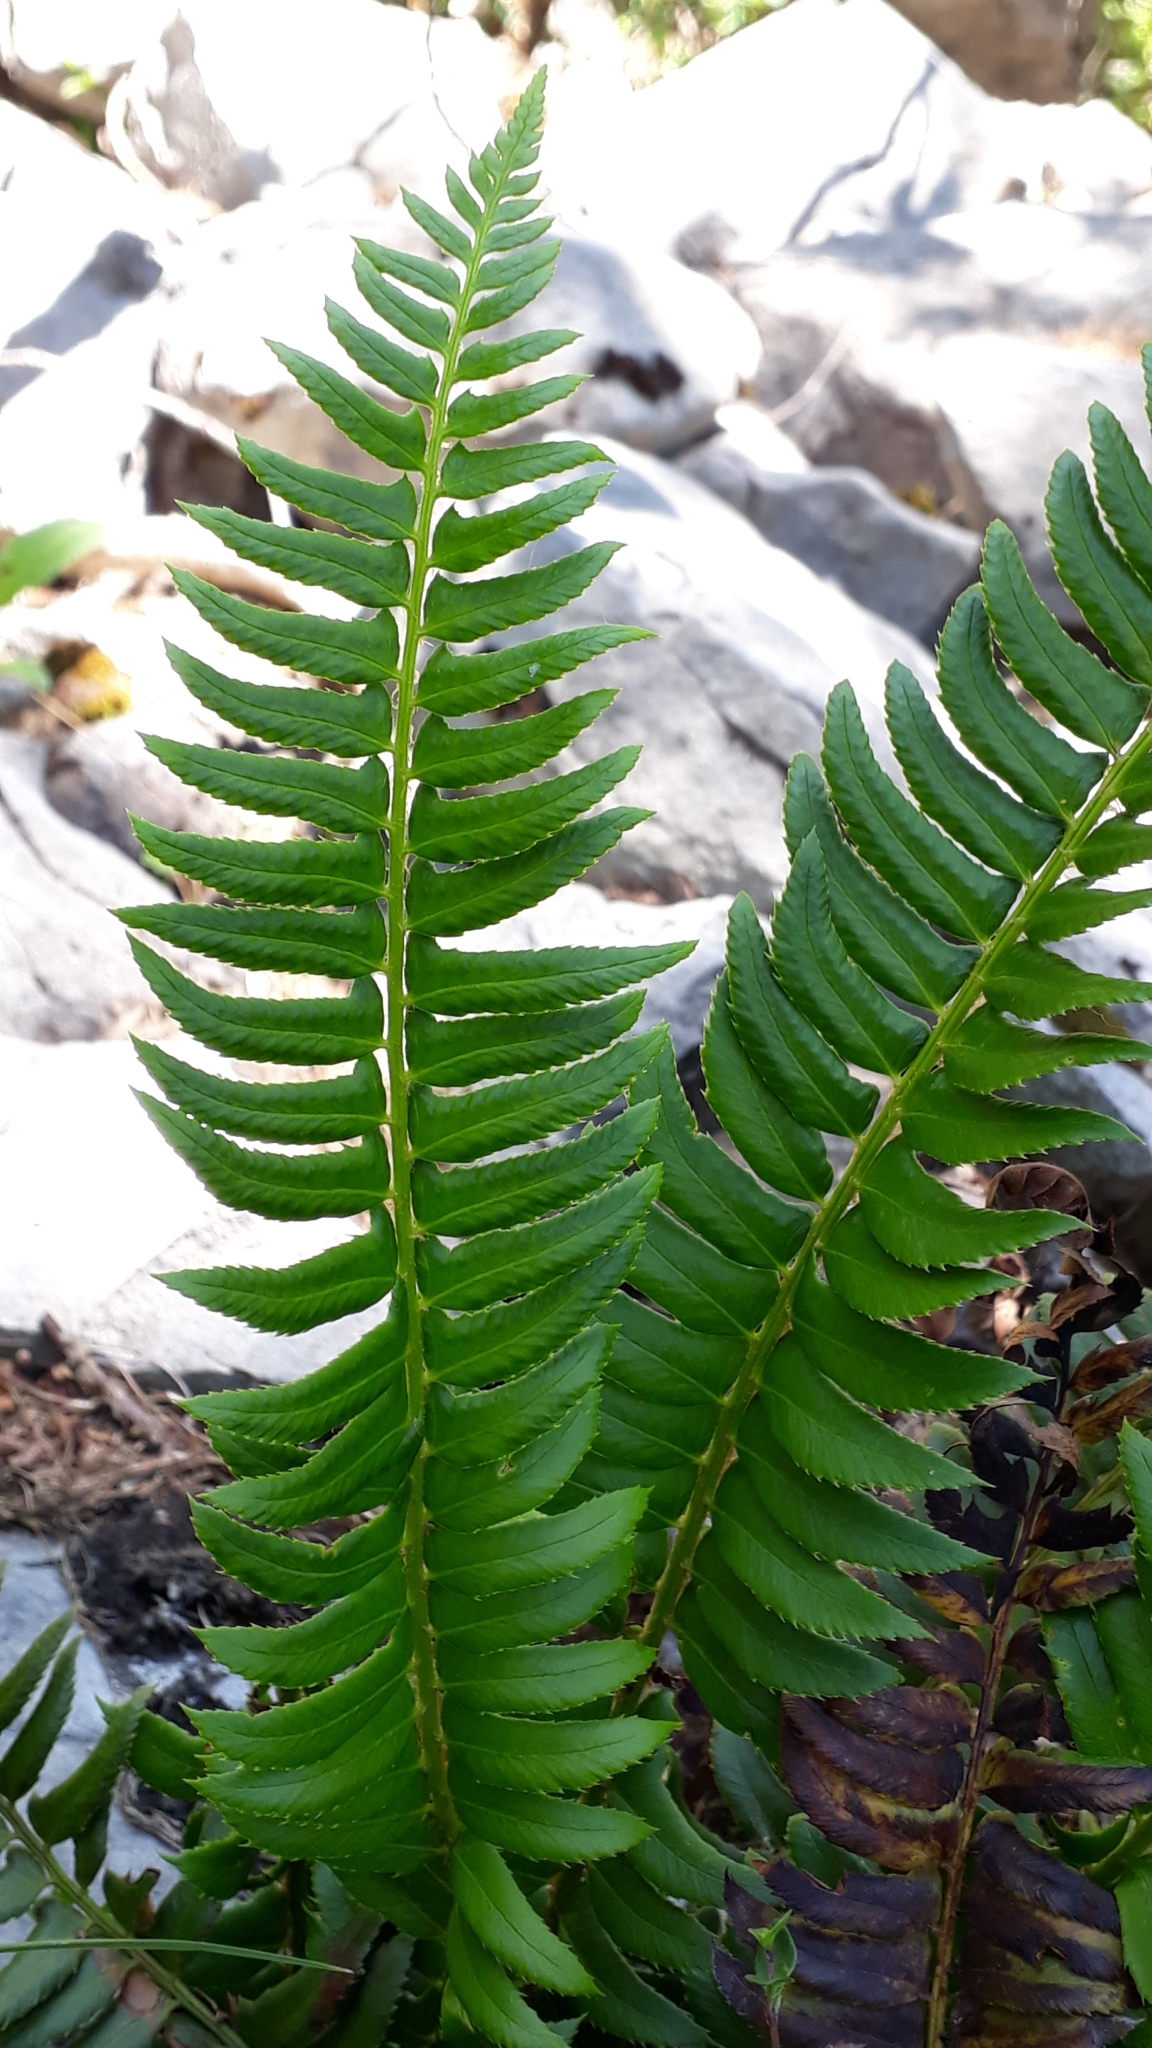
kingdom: Plantae
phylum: Tracheophyta
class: Polypodiopsida
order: Polypodiales
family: Dryopteridaceae
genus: Polystichum
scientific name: Polystichum lonchitis
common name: Holly fern
